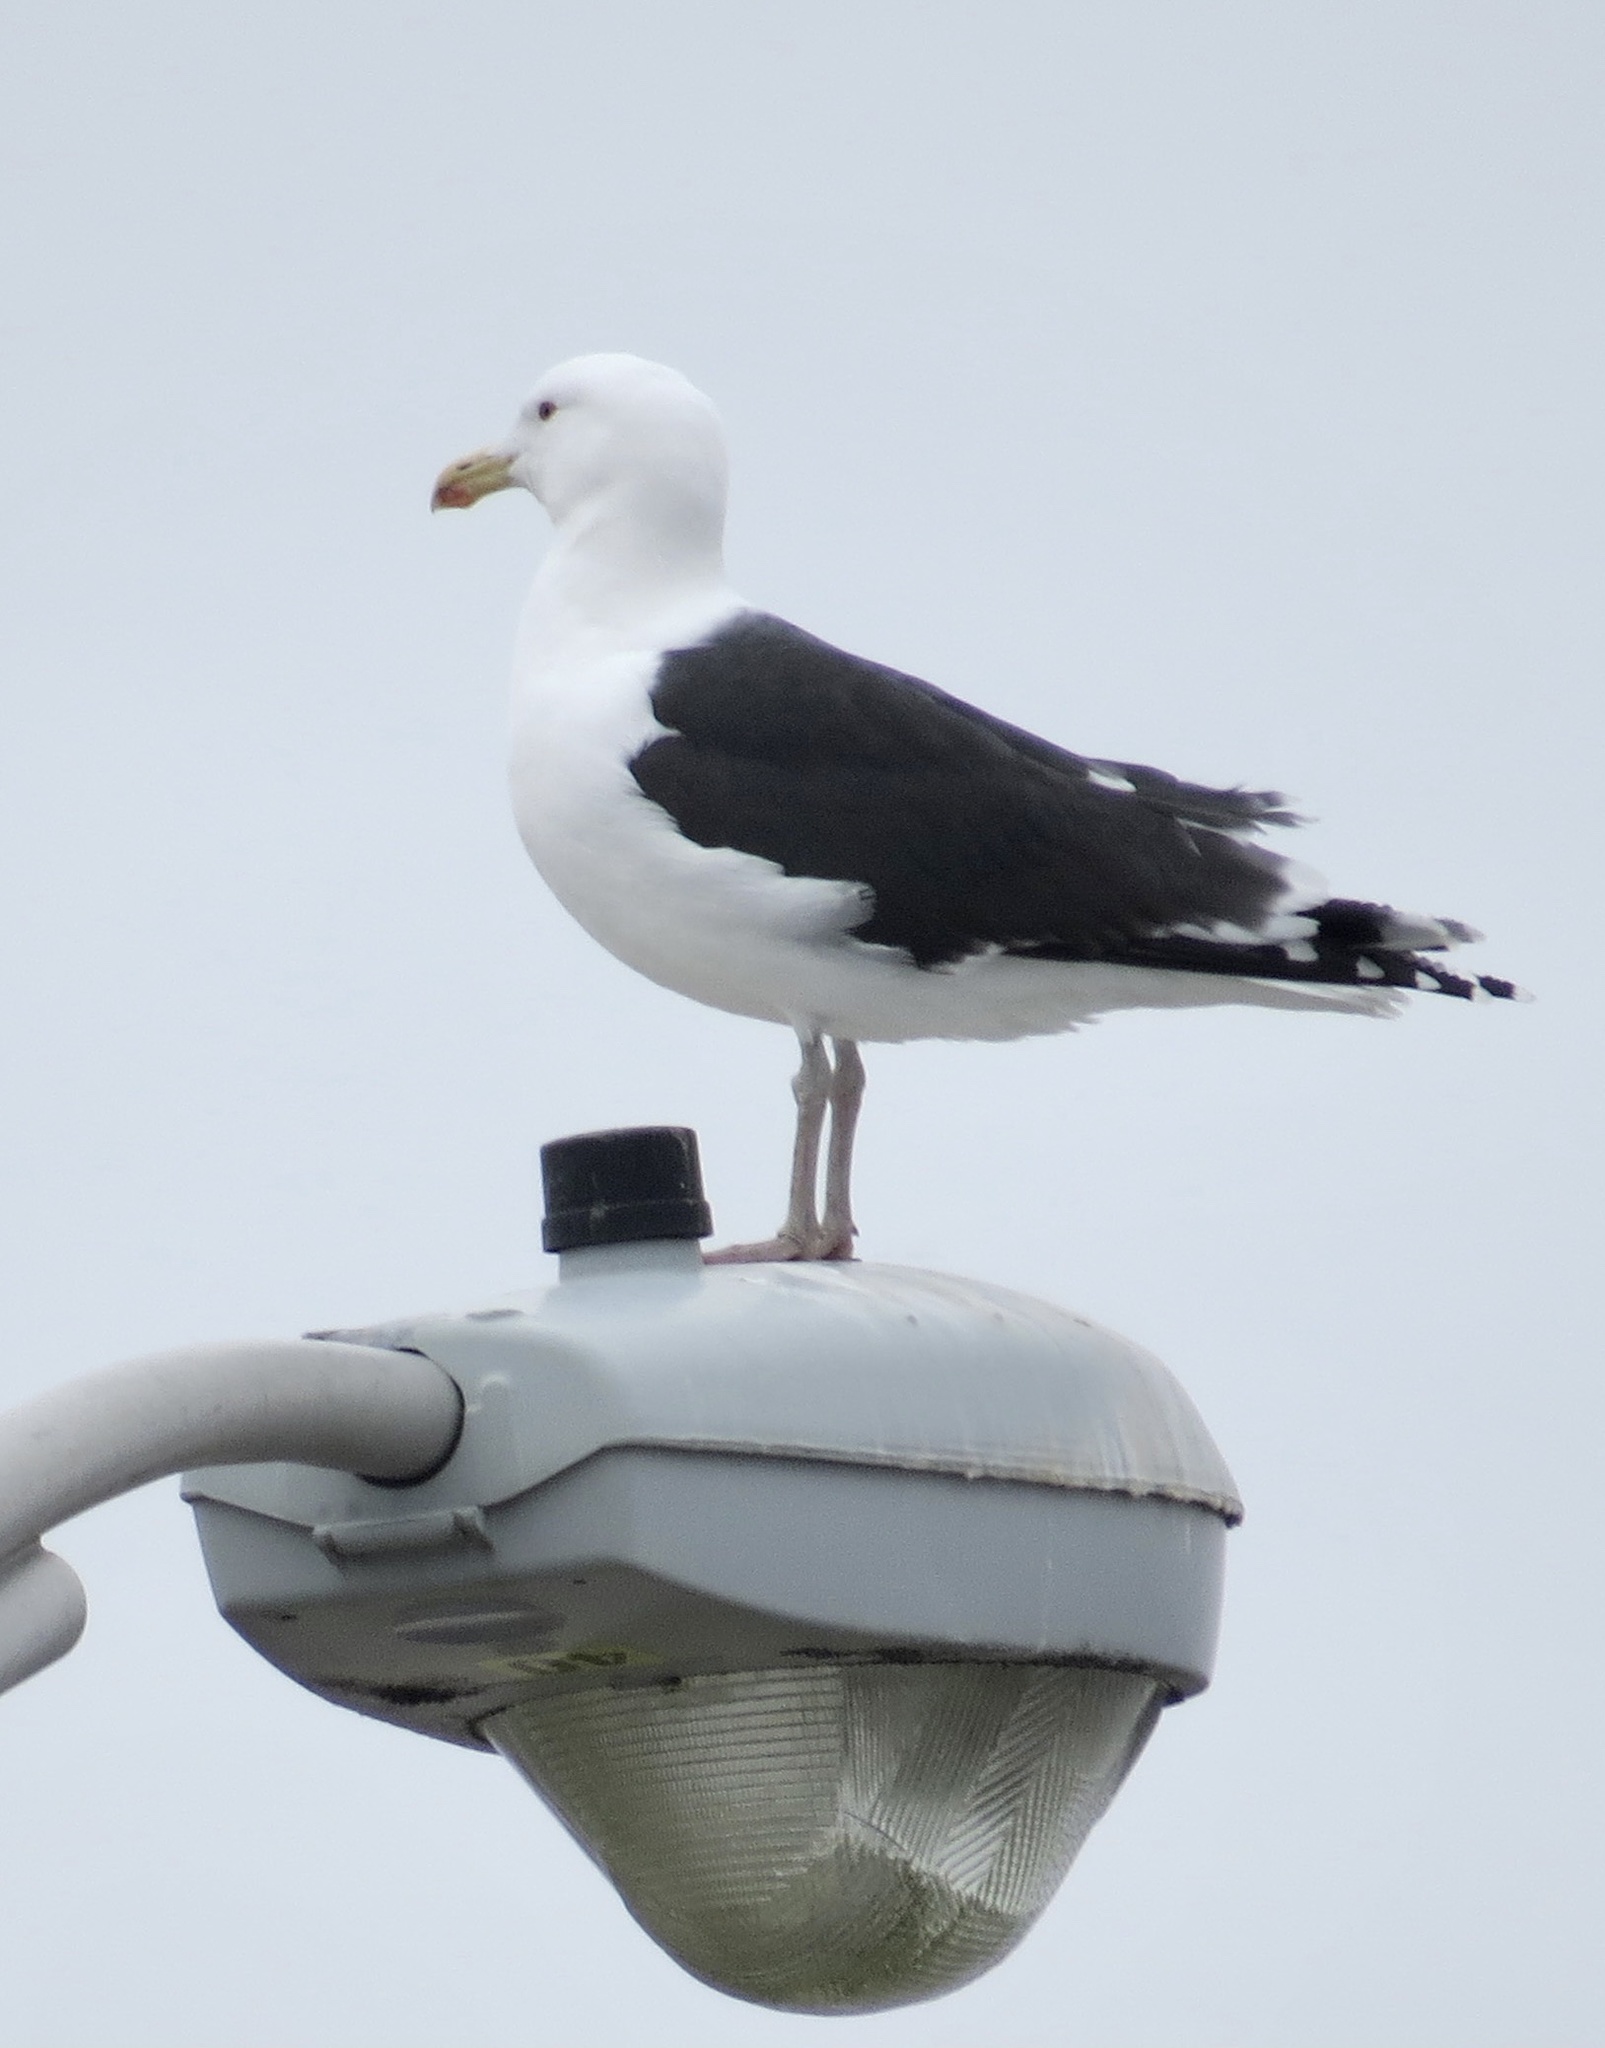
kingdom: Animalia
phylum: Chordata
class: Aves
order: Charadriiformes
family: Laridae
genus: Larus
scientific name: Larus marinus
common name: Great black-backed gull
